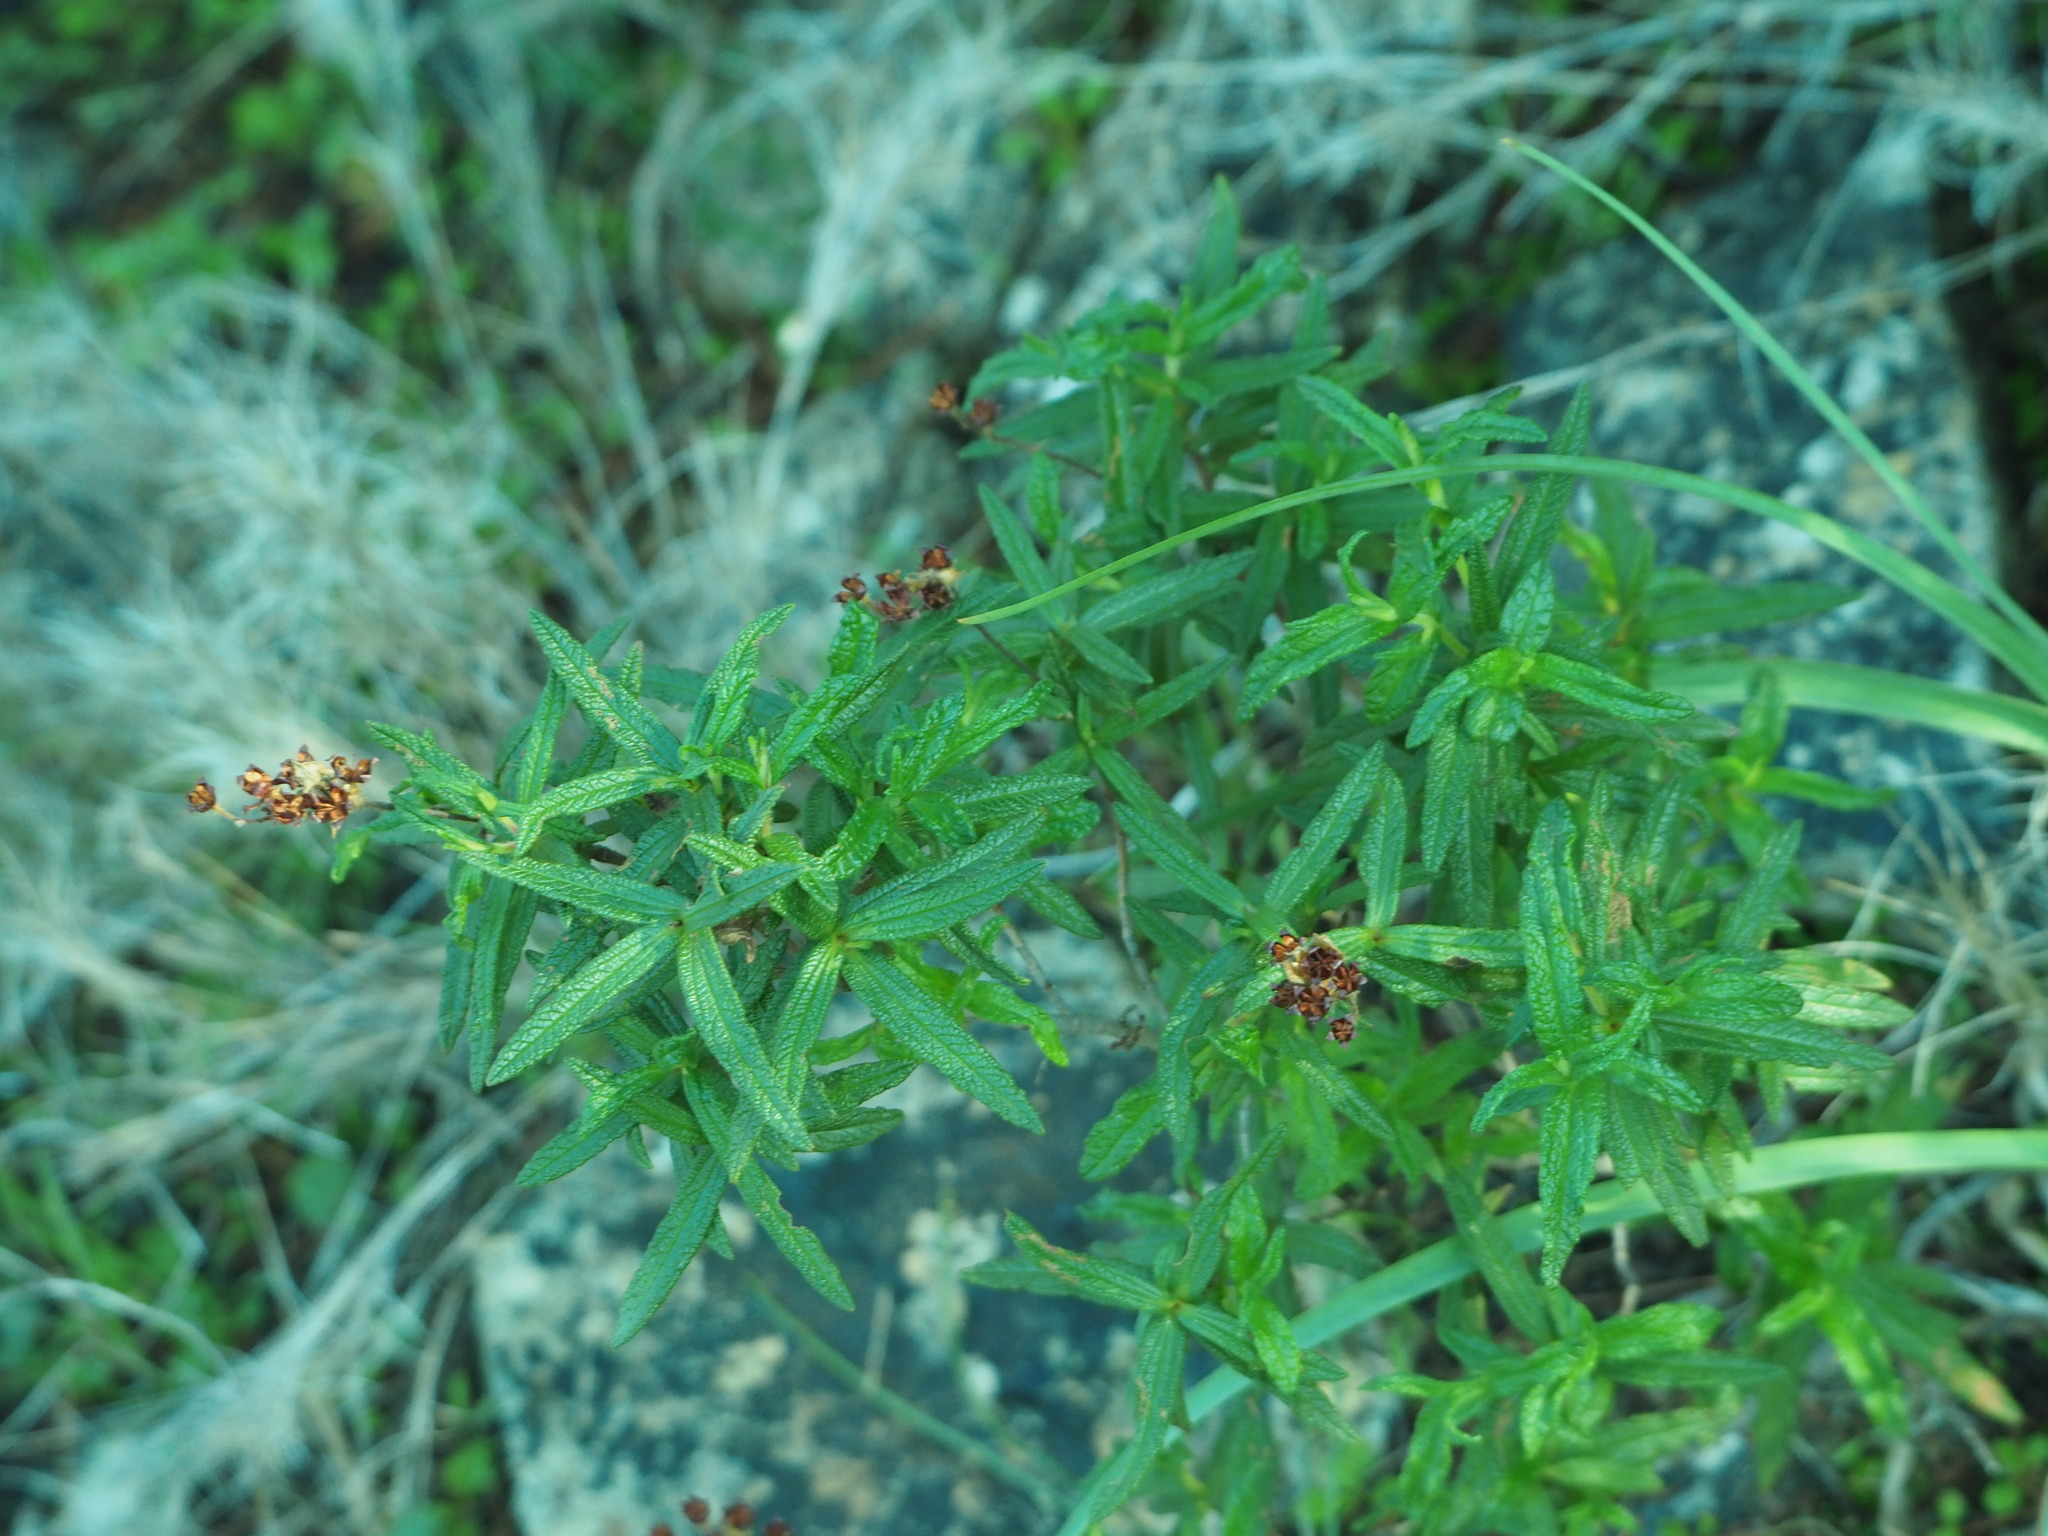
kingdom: Plantae
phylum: Tracheophyta
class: Magnoliopsida
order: Malvales
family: Cistaceae
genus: Cistus
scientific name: Cistus monspeliensis
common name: Montpelier cistus
